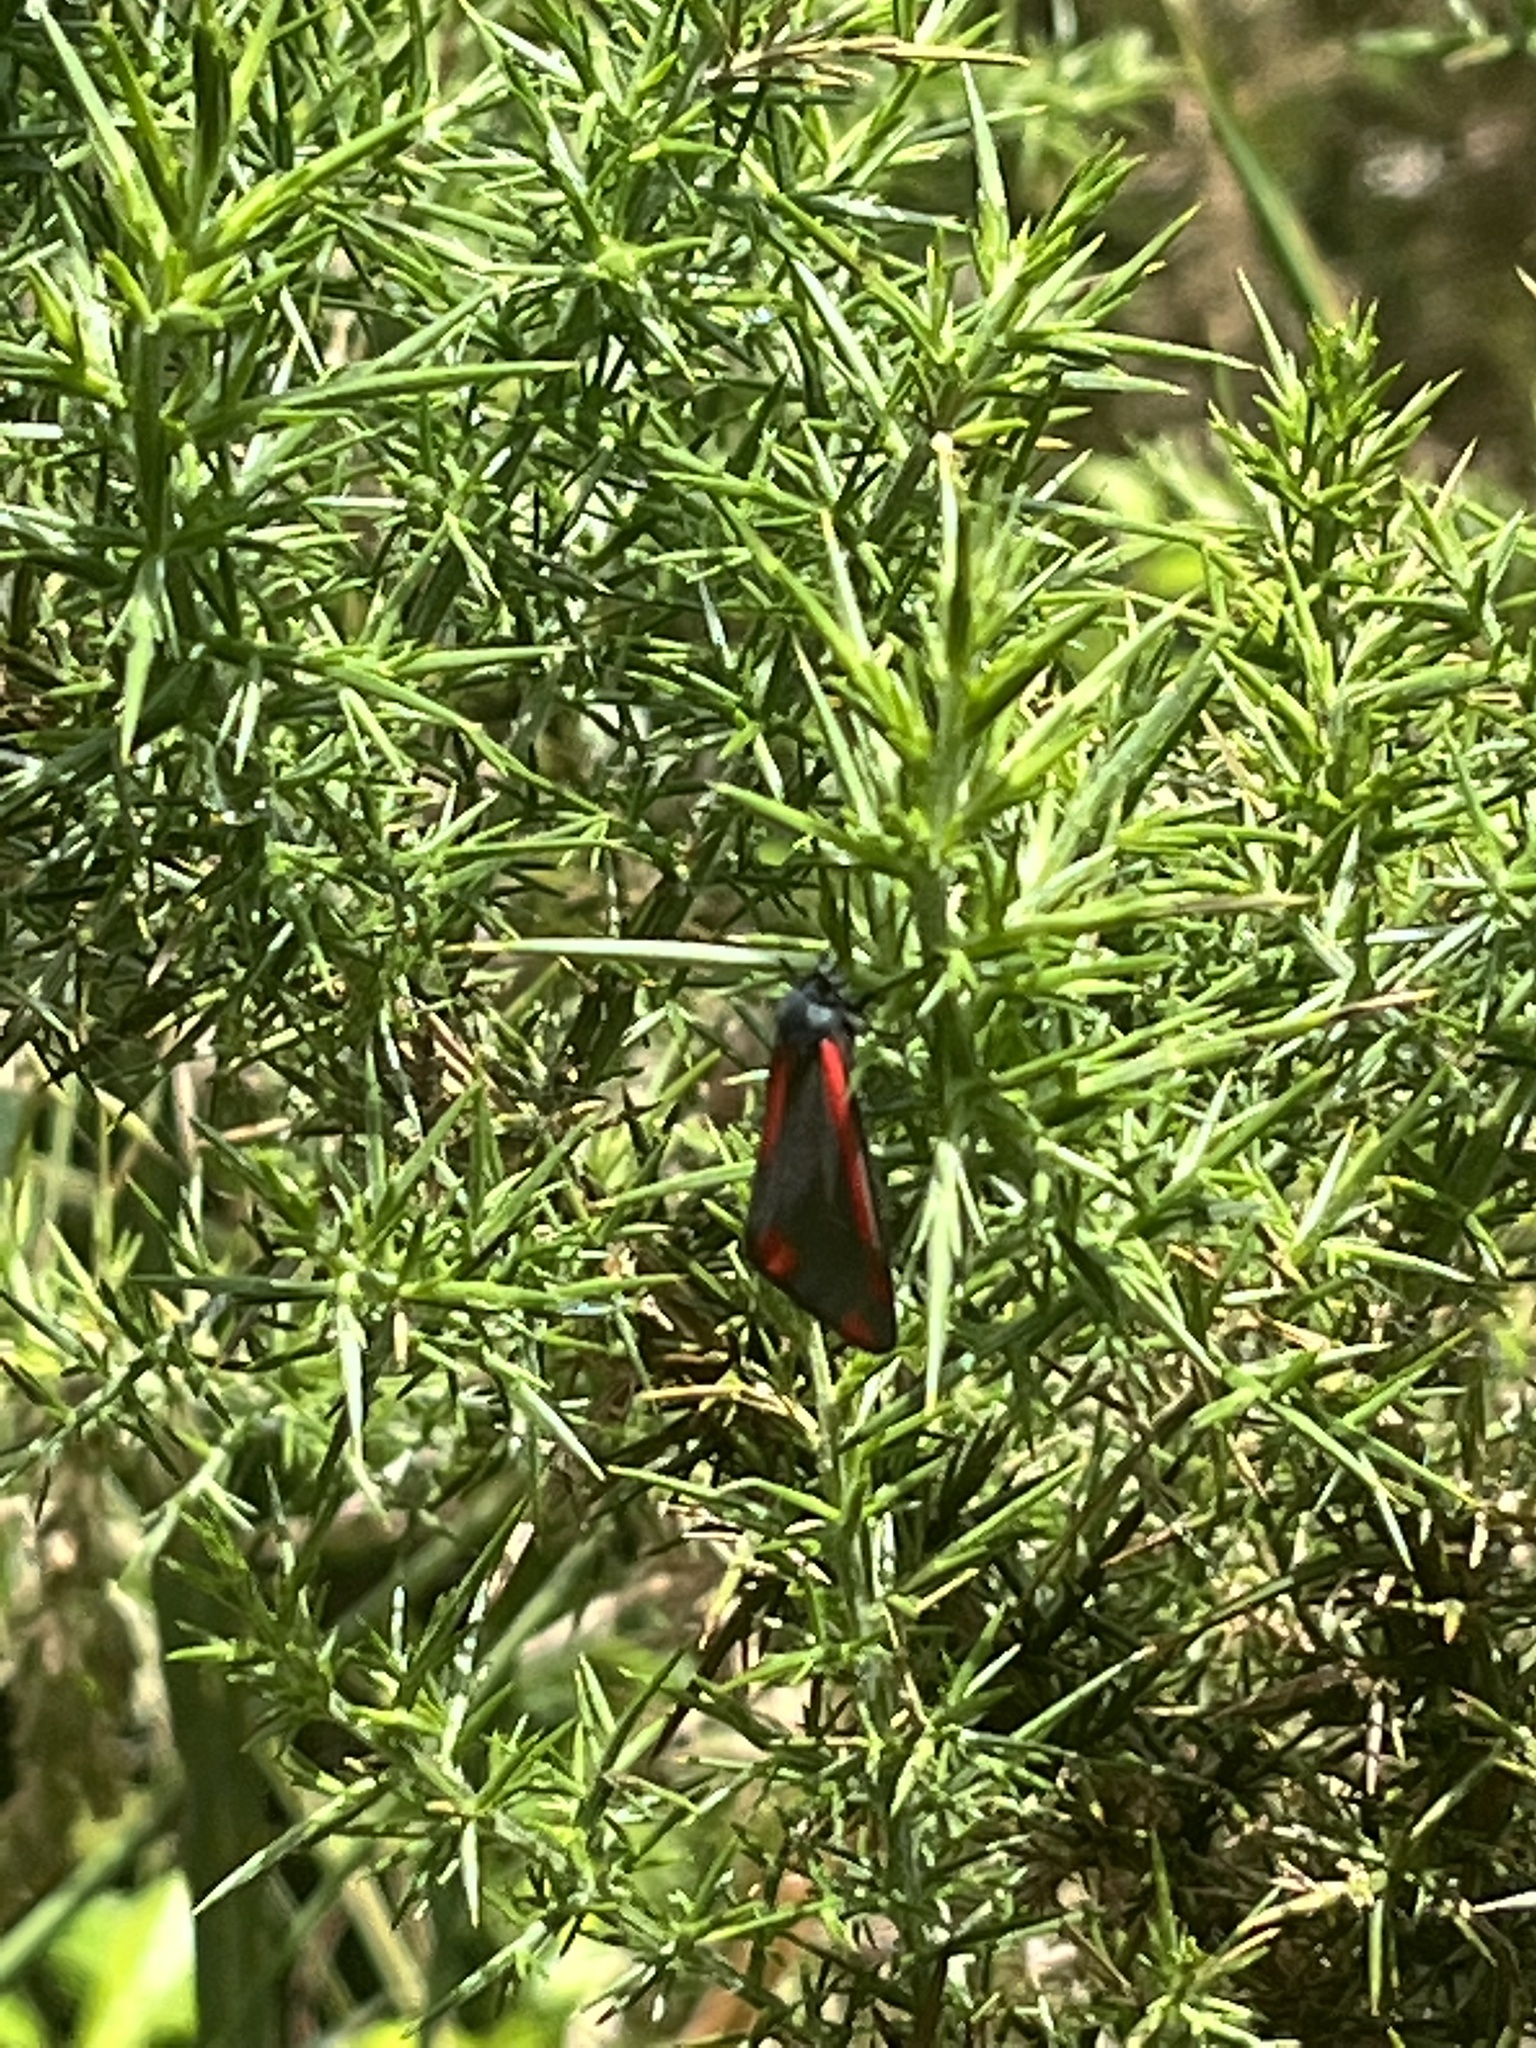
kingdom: Animalia
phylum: Arthropoda
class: Insecta
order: Lepidoptera
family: Erebidae
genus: Tyria
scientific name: Tyria jacobaeae
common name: Cinnabar
